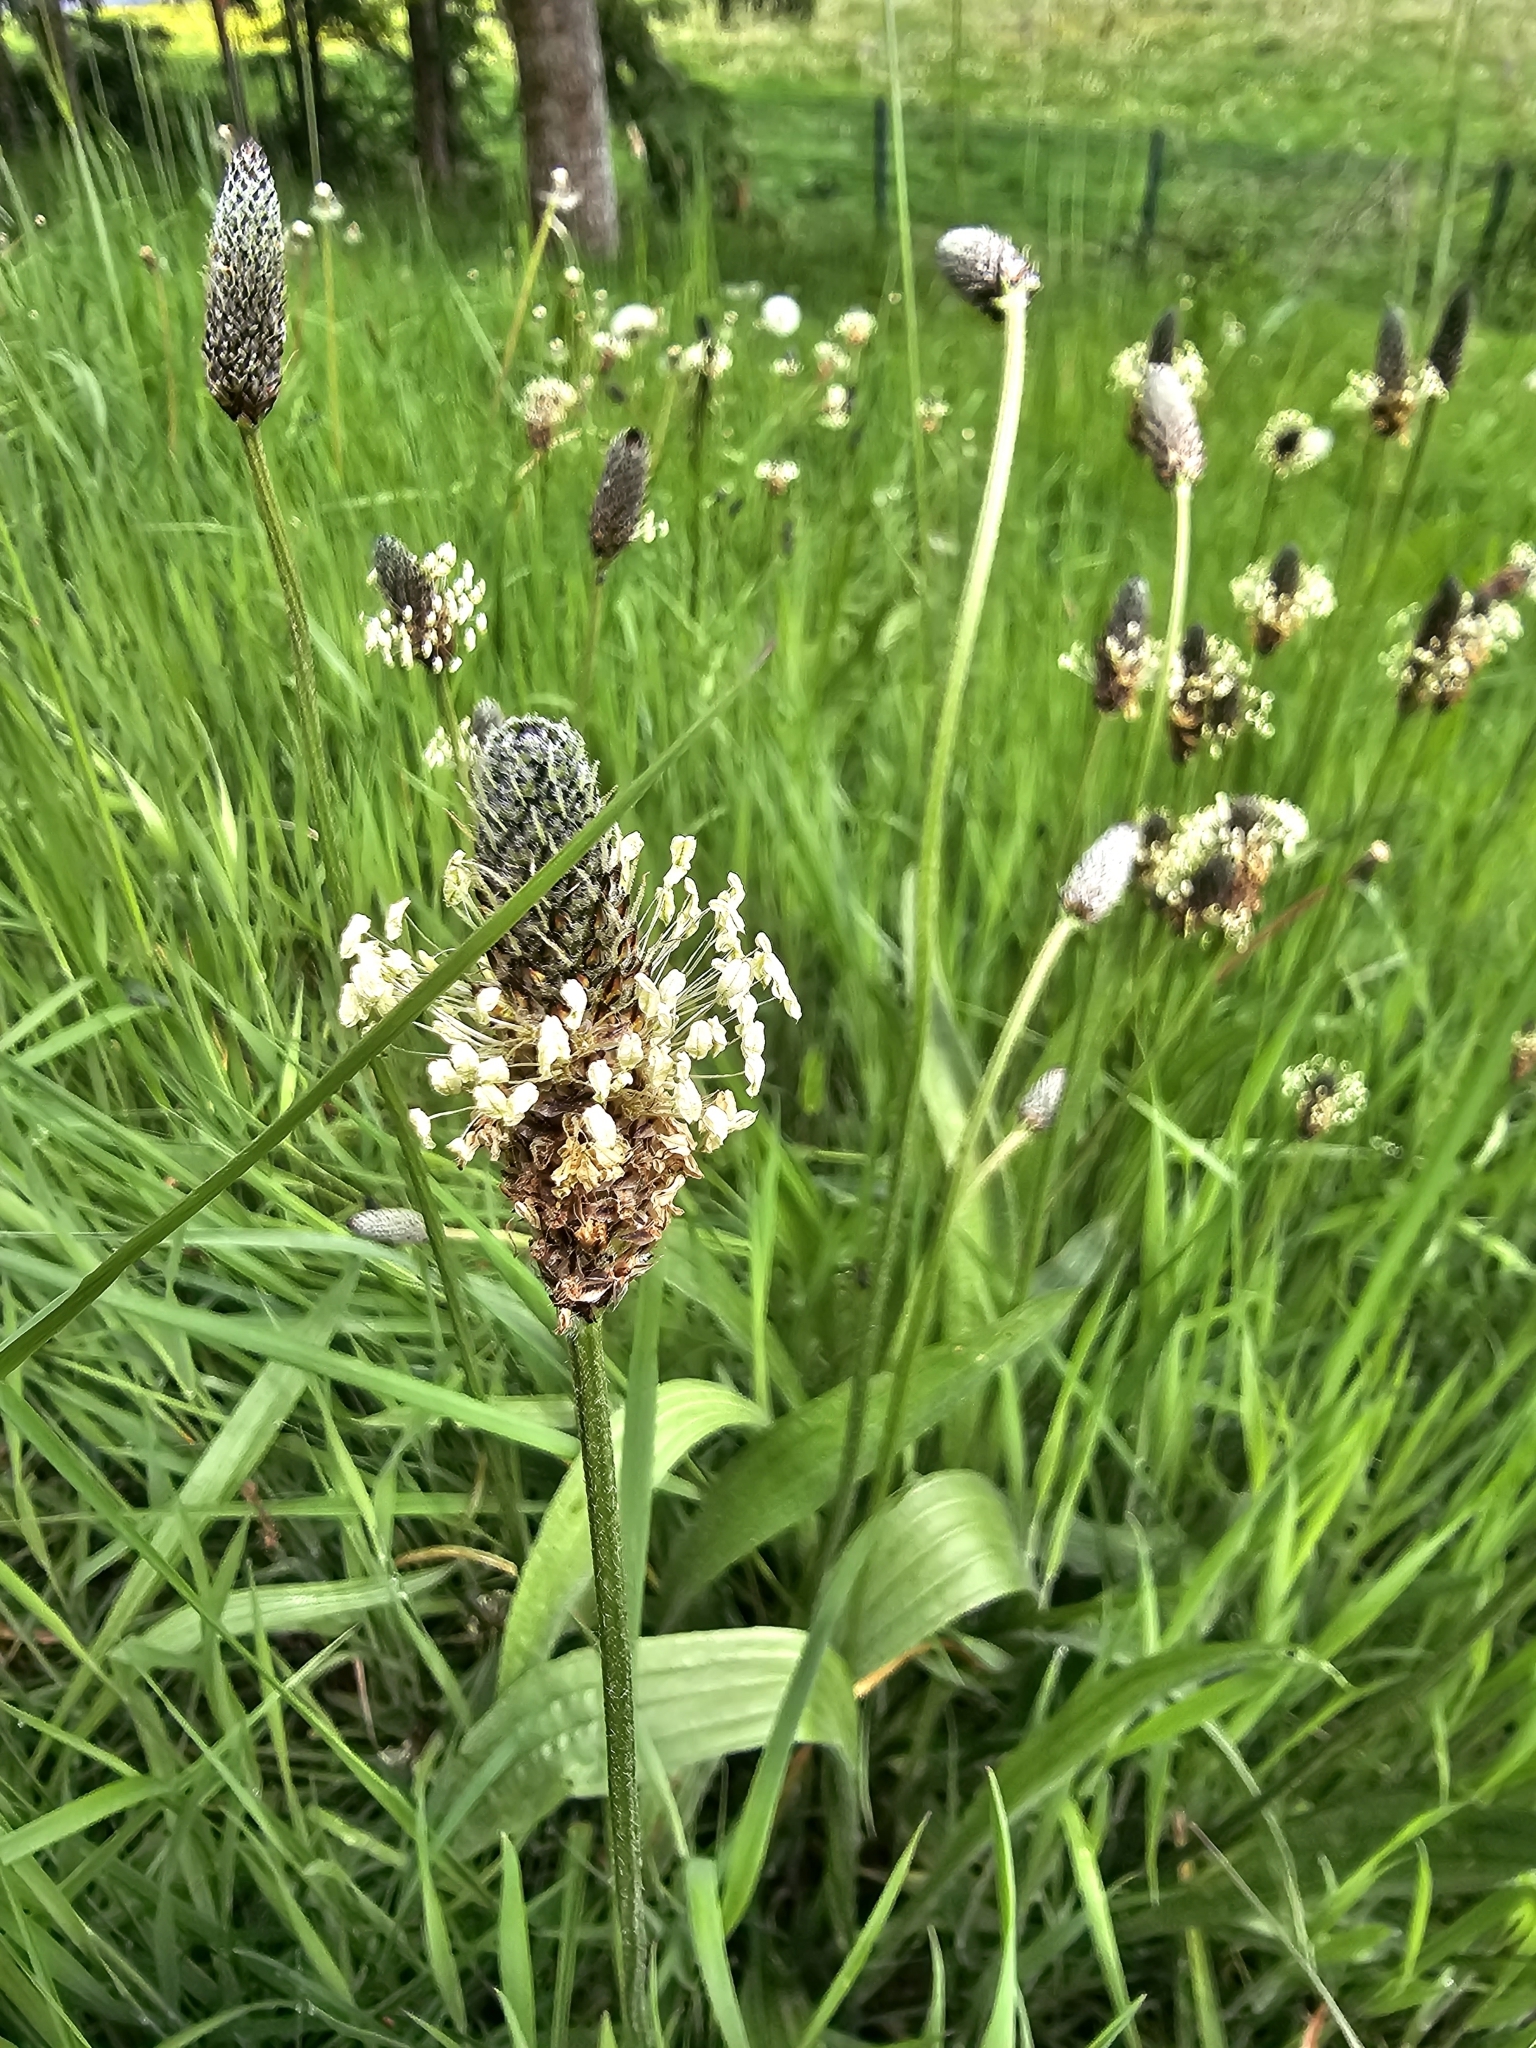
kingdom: Plantae
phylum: Tracheophyta
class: Magnoliopsida
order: Lamiales
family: Plantaginaceae
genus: Plantago
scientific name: Plantago lanceolata
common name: Ribwort plantain
